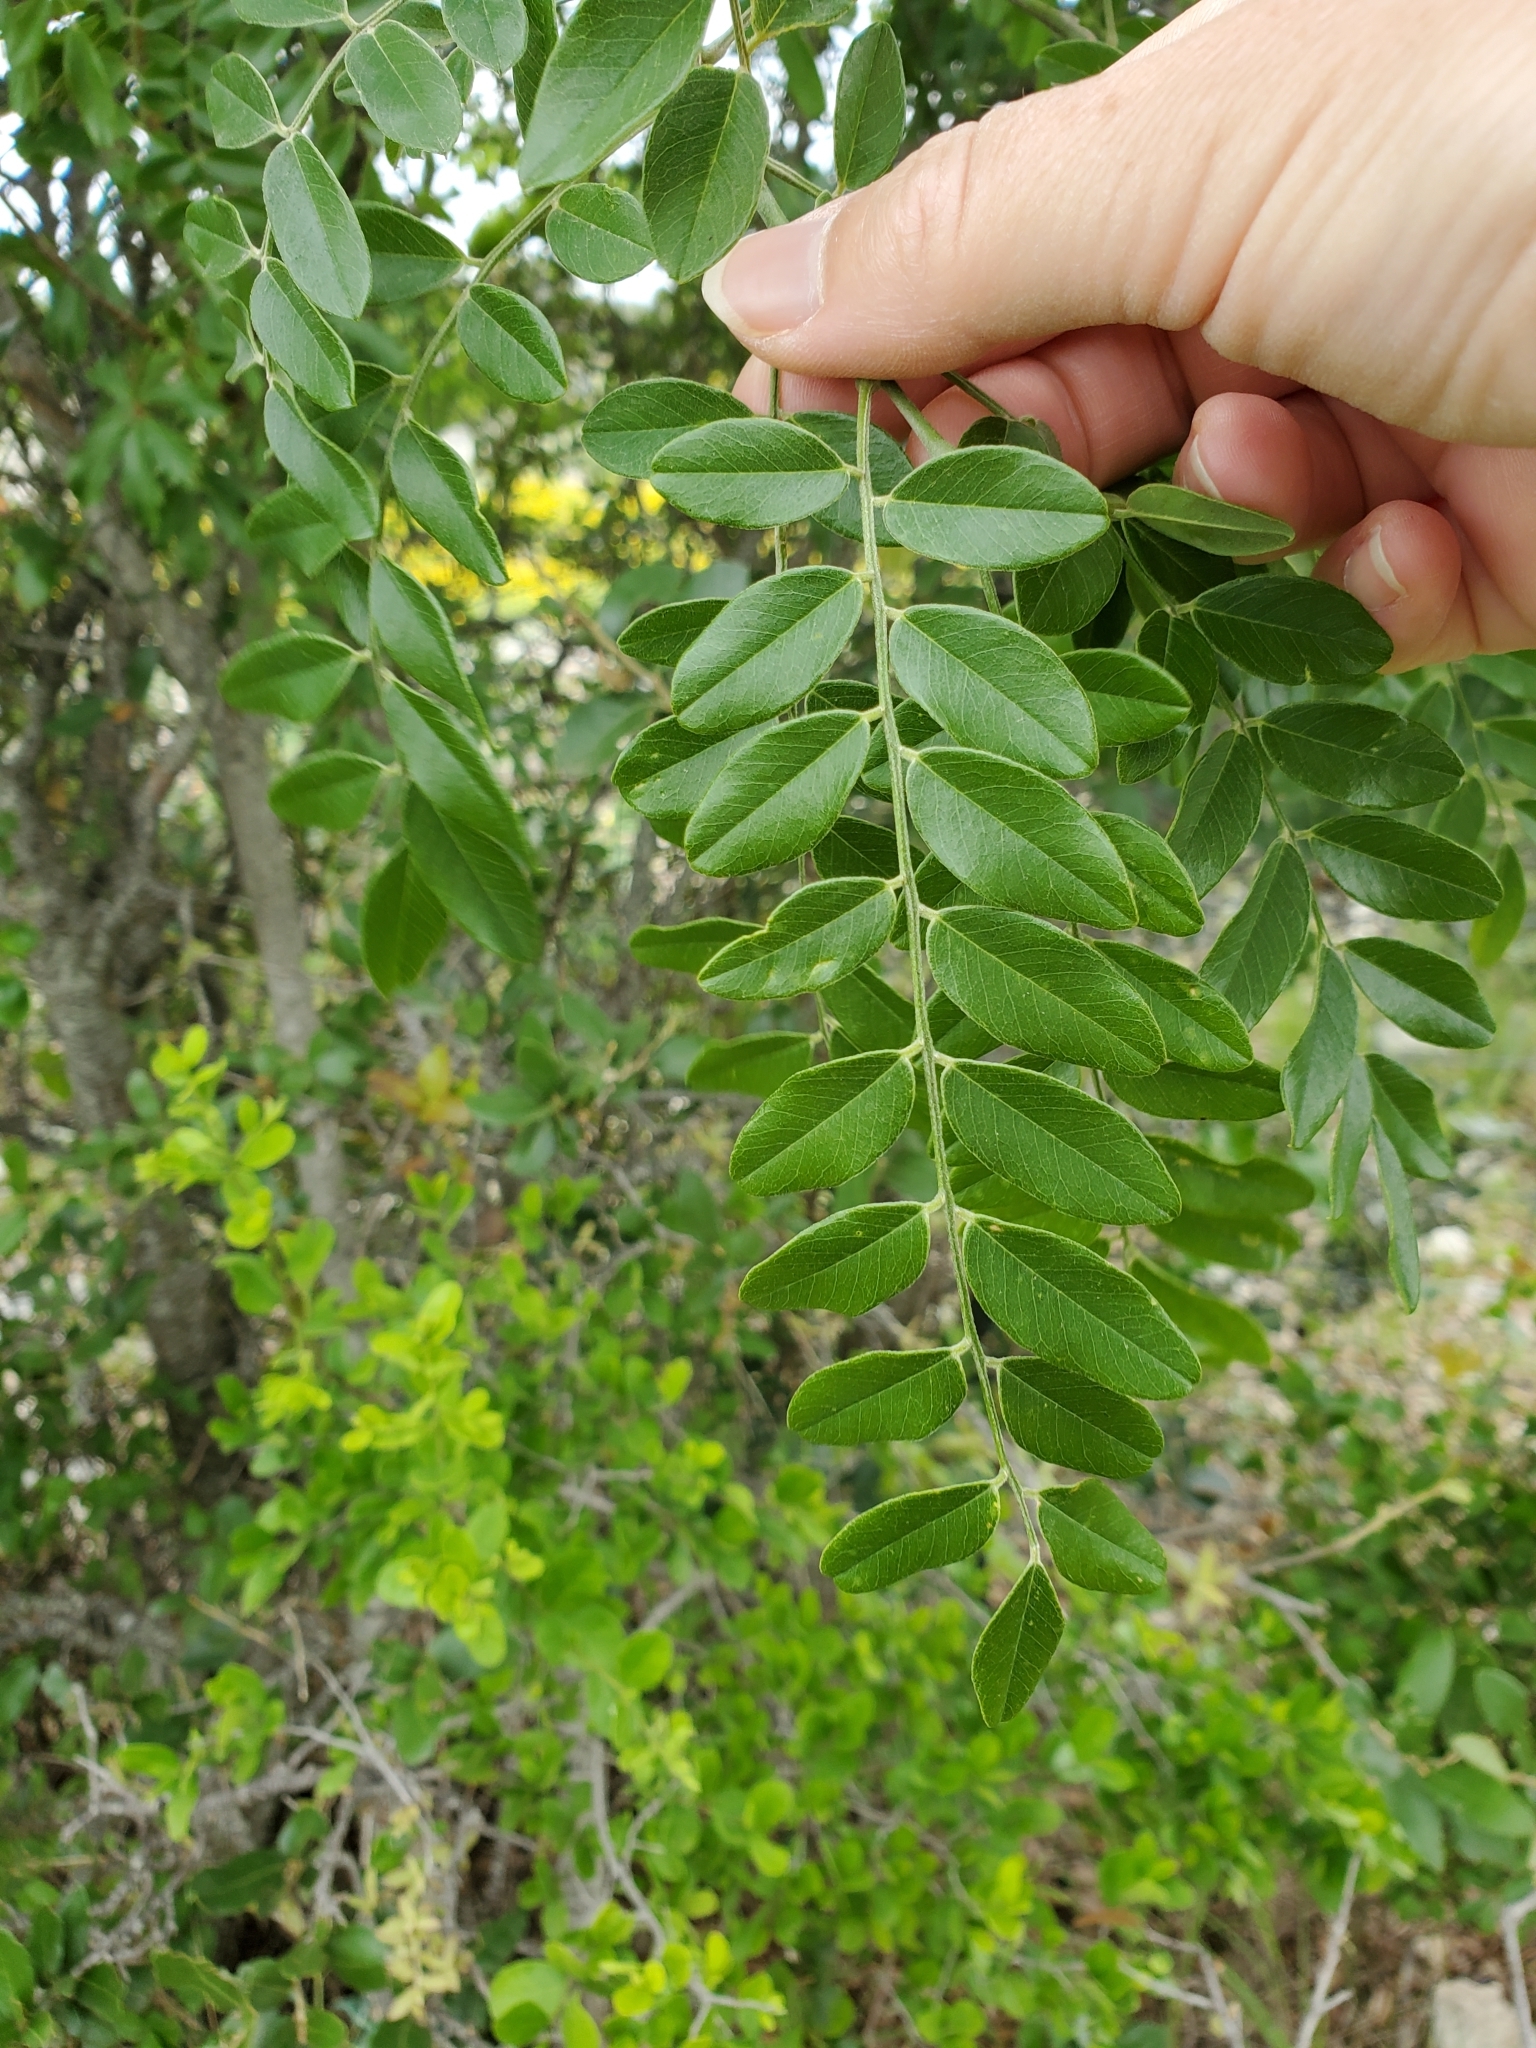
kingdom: Plantae
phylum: Tracheophyta
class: Magnoliopsida
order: Fabales
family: Fabaceae
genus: Styphnolobium
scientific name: Styphnolobium affine
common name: Texas sophora
